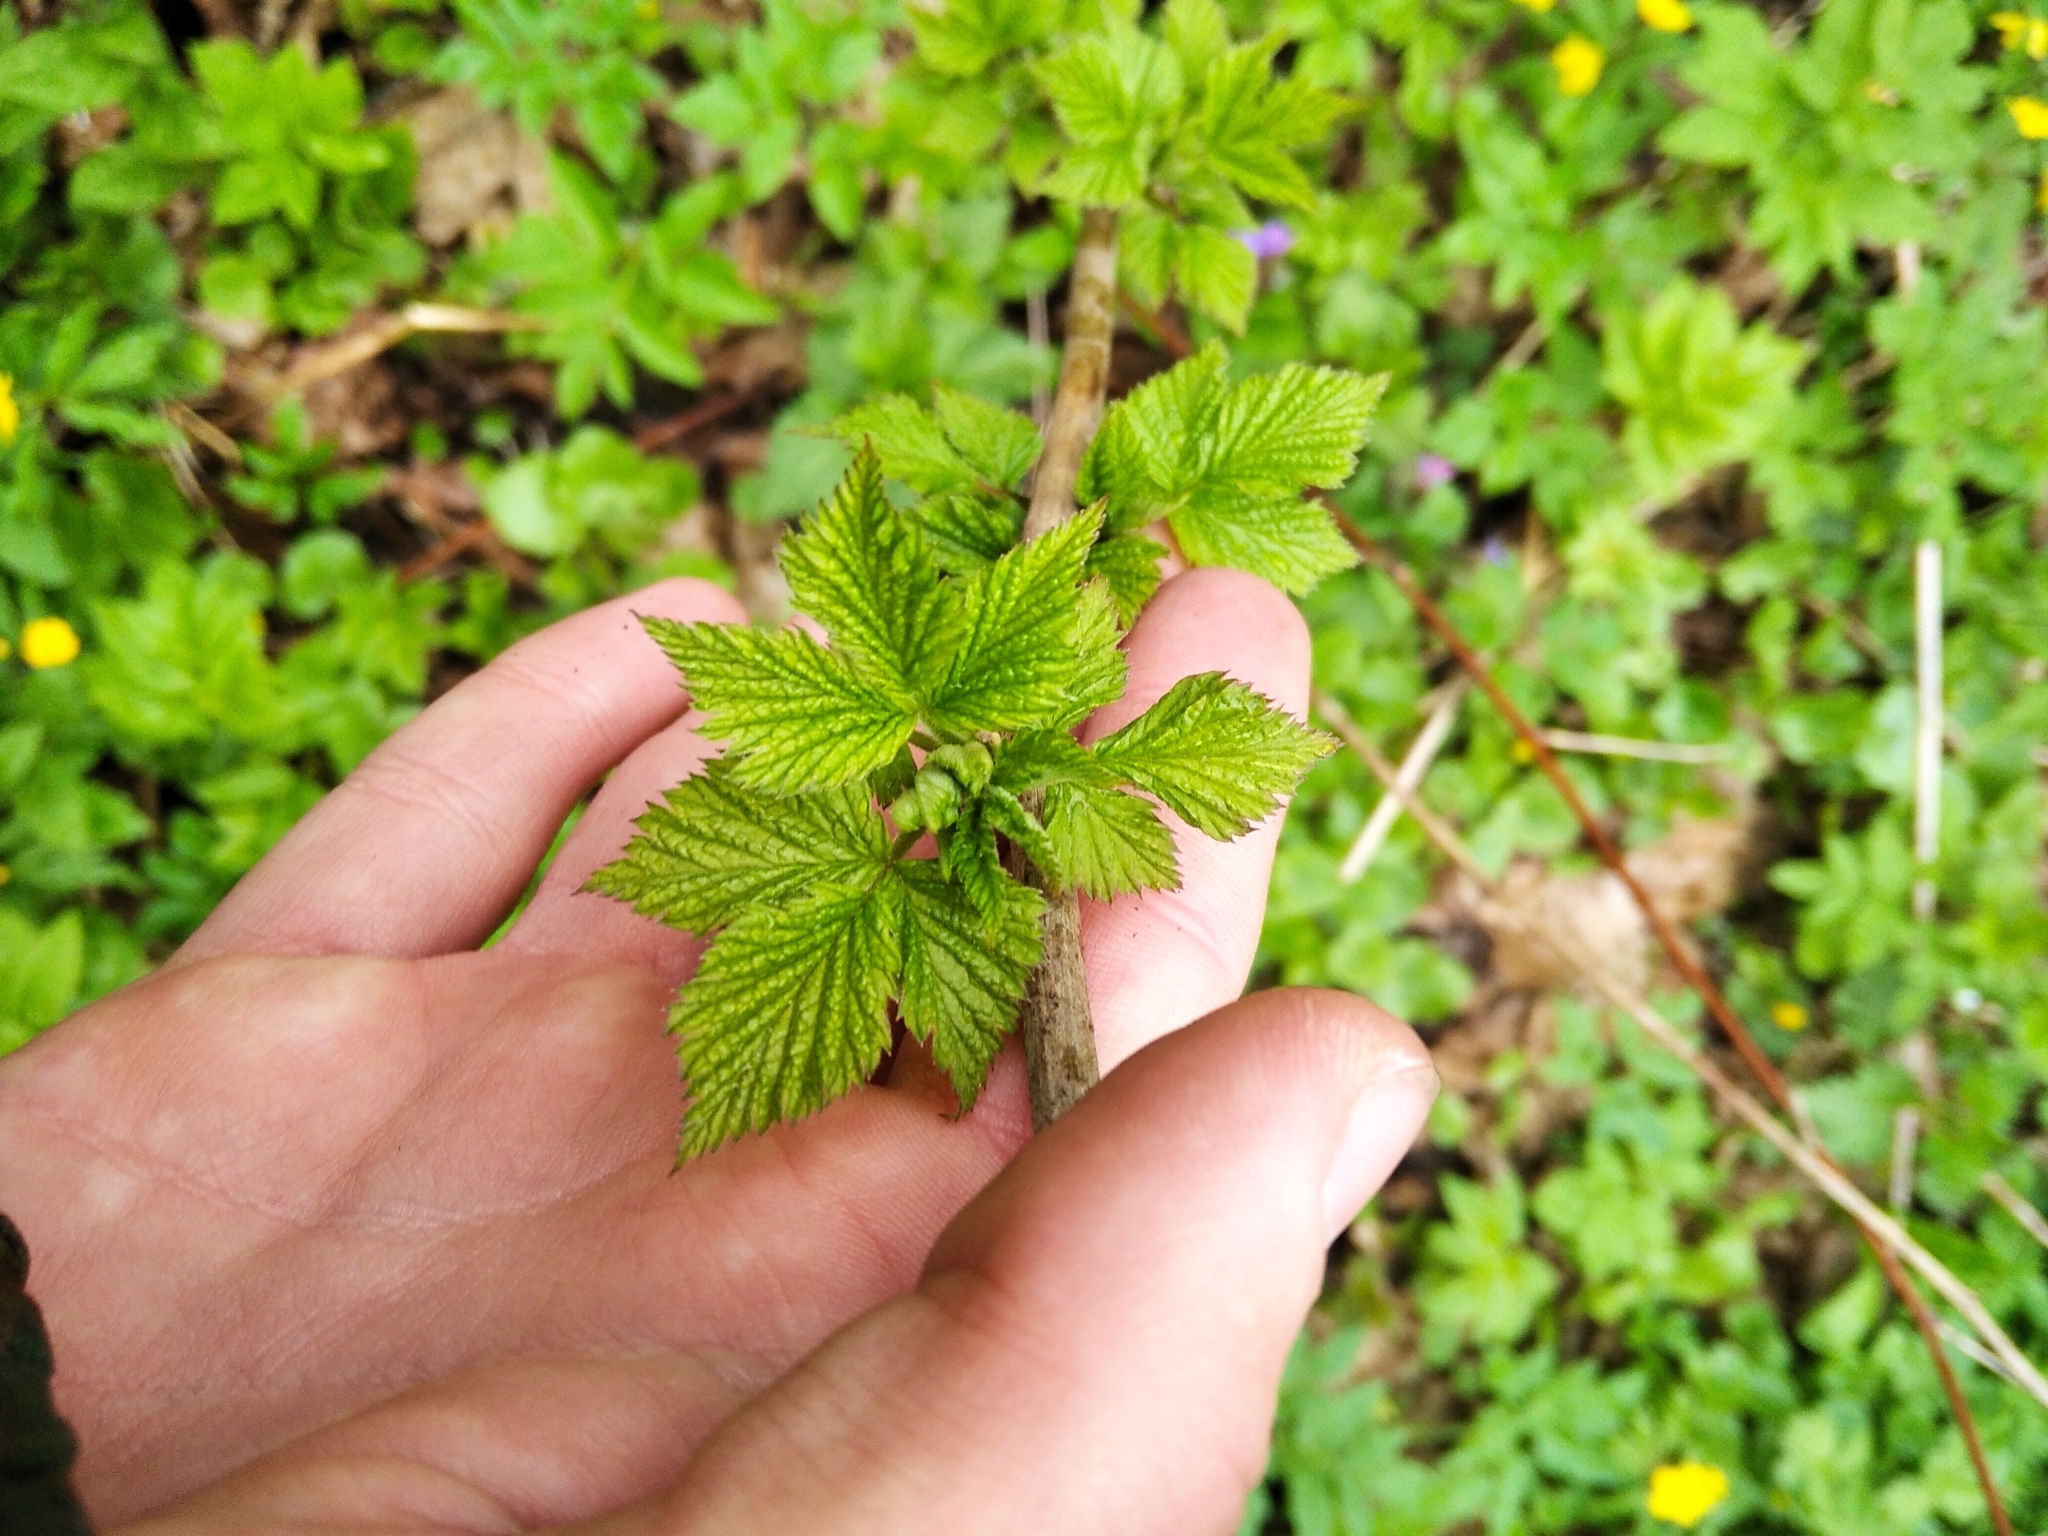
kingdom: Plantae
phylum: Tracheophyta
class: Magnoliopsida
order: Rosales
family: Rosaceae
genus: Rubus
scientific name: Rubus idaeus
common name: Raspberry
